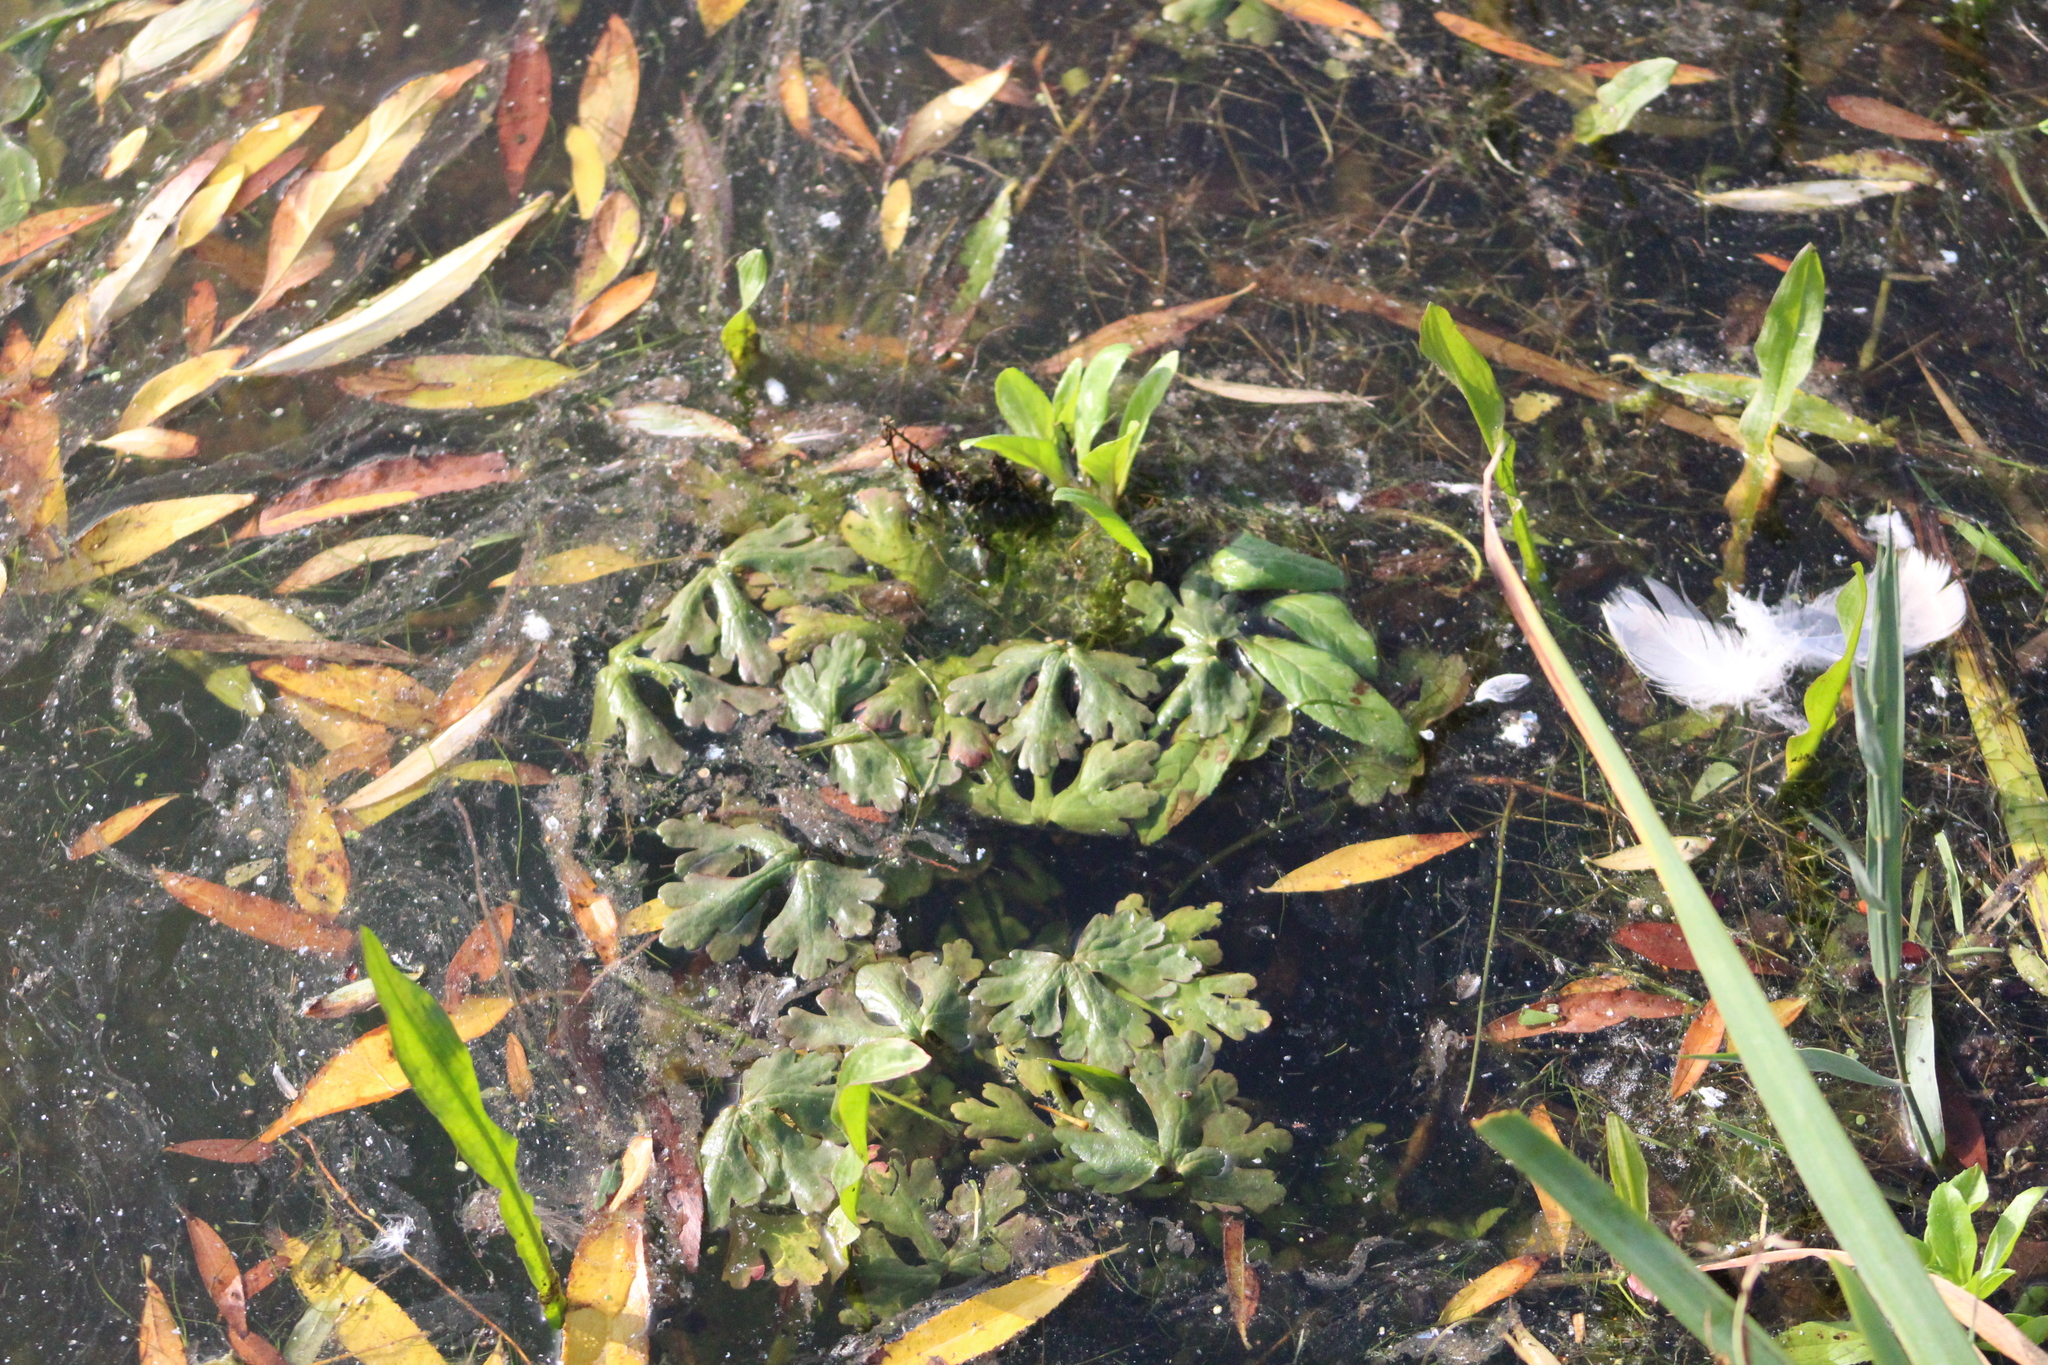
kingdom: Plantae
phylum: Tracheophyta
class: Magnoliopsida
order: Ranunculales
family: Ranunculaceae
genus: Ranunculus
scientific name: Ranunculus sceleratus
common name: Celery-leaved buttercup
